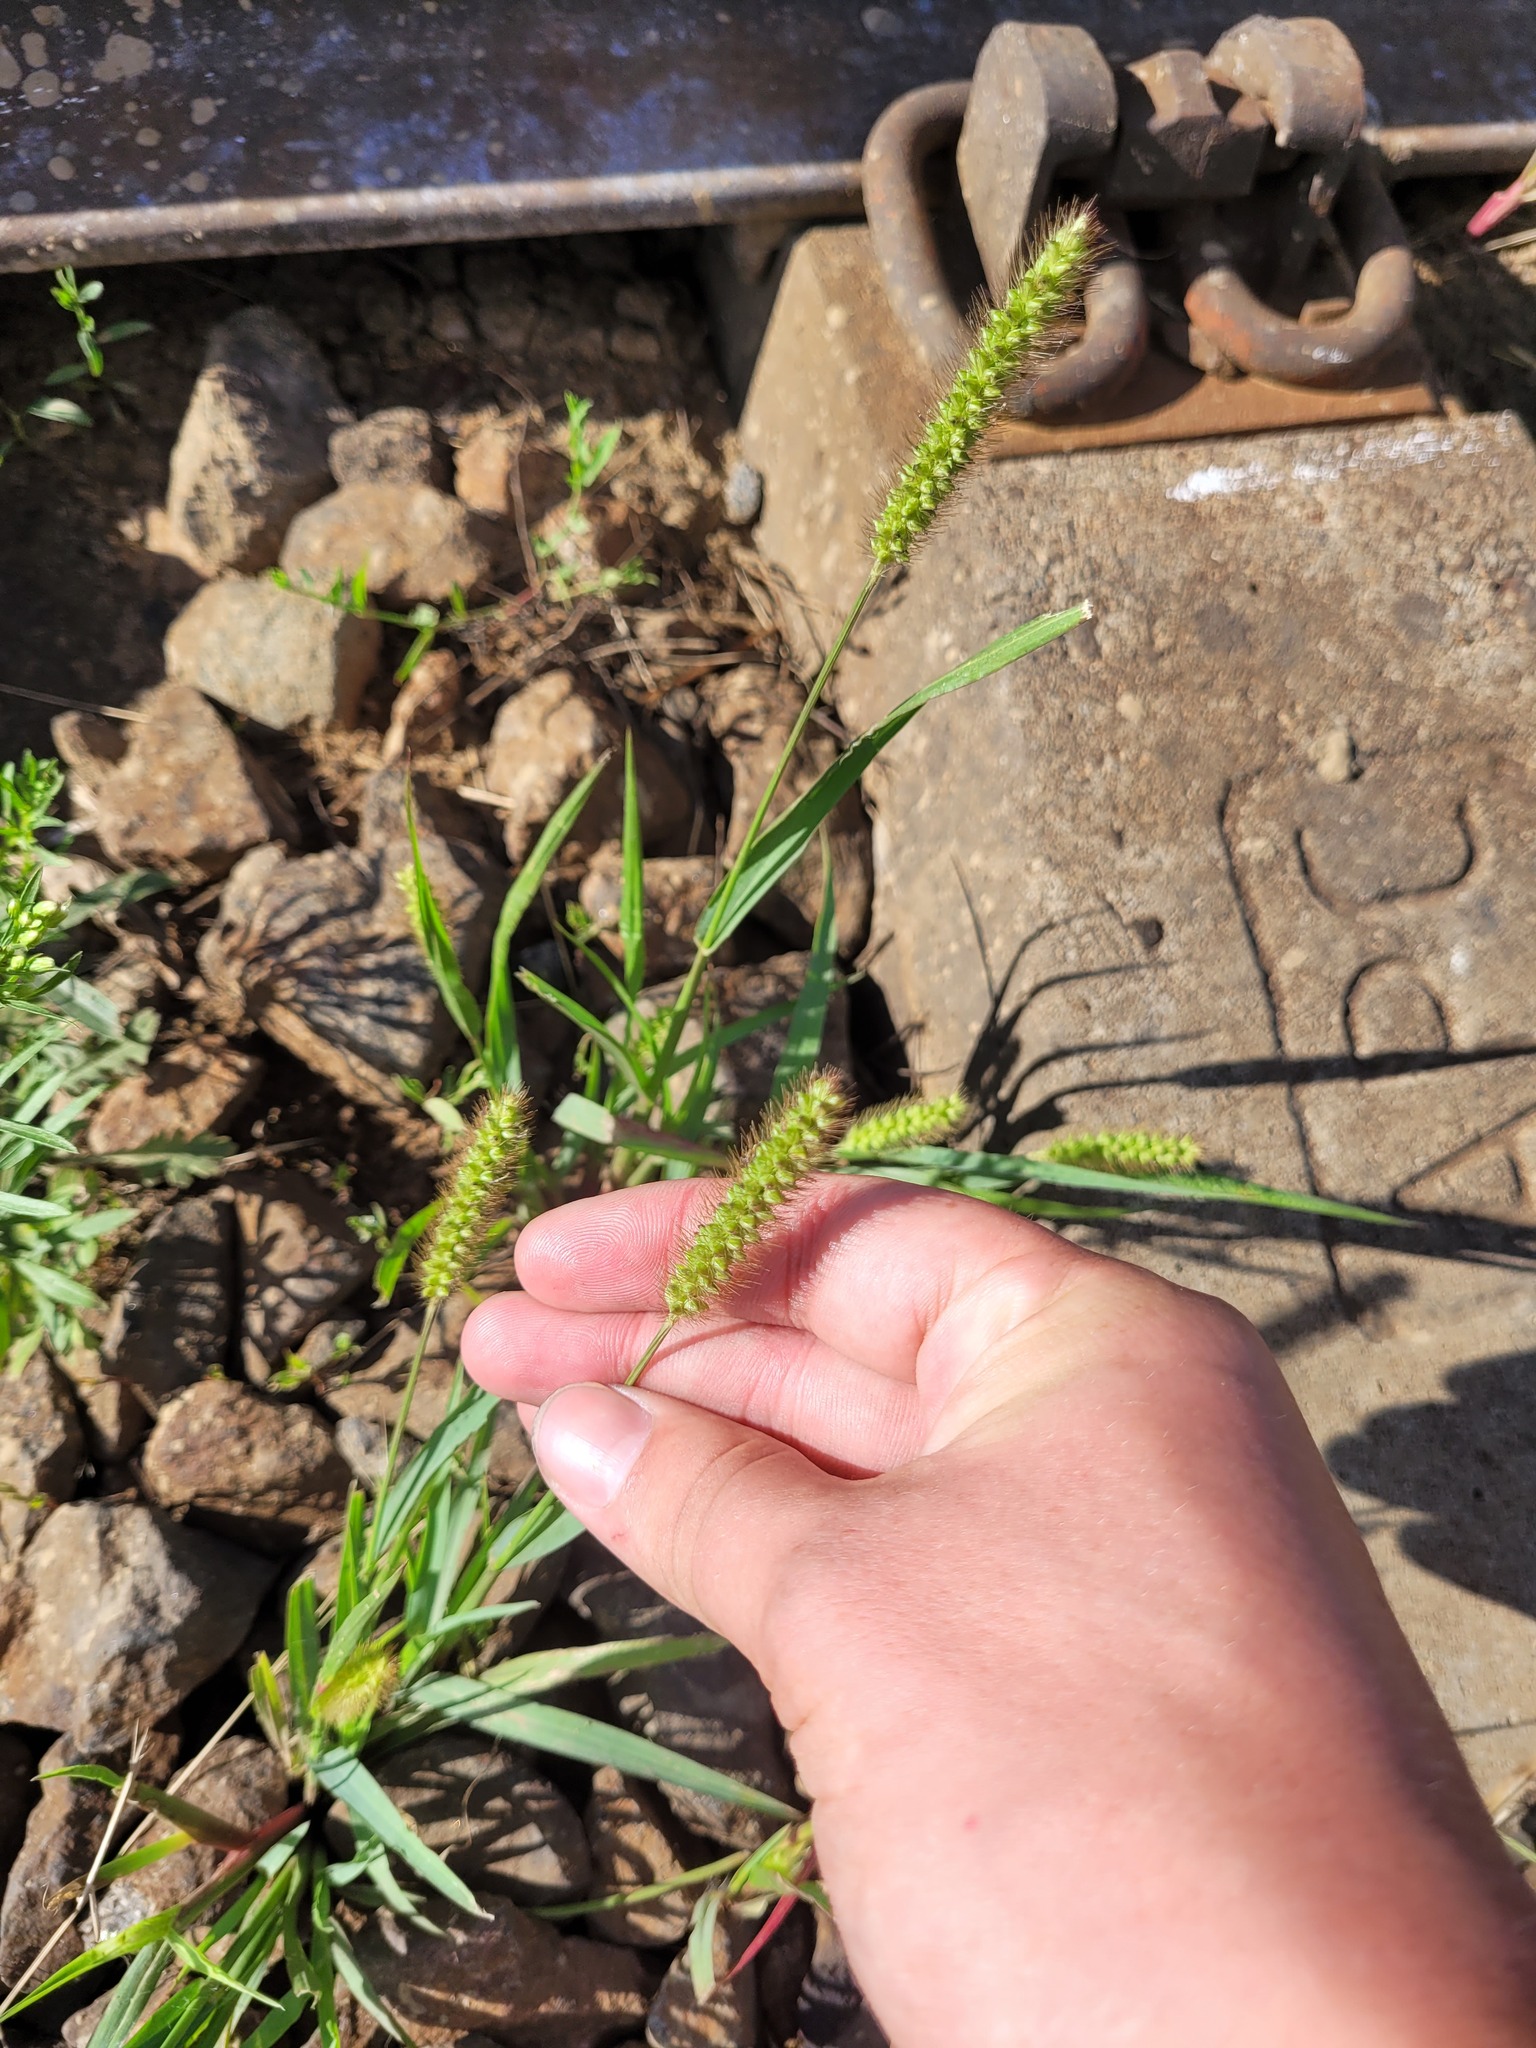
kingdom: Plantae
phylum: Tracheophyta
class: Liliopsida
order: Poales
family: Poaceae
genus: Setaria
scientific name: Setaria pumila
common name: Yellow bristle-grass
